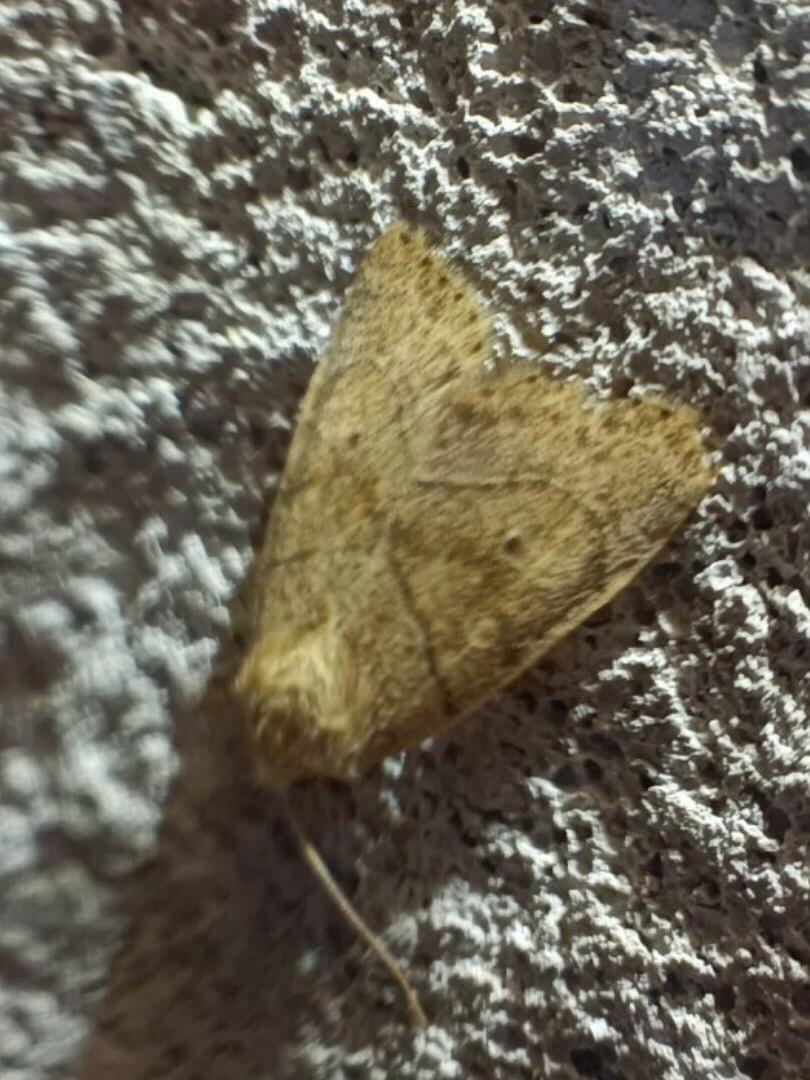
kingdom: Animalia
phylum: Arthropoda
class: Insecta
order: Lepidoptera
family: Noctuidae
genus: Cosmia
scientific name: Cosmia trapezina
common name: Dun-bar
